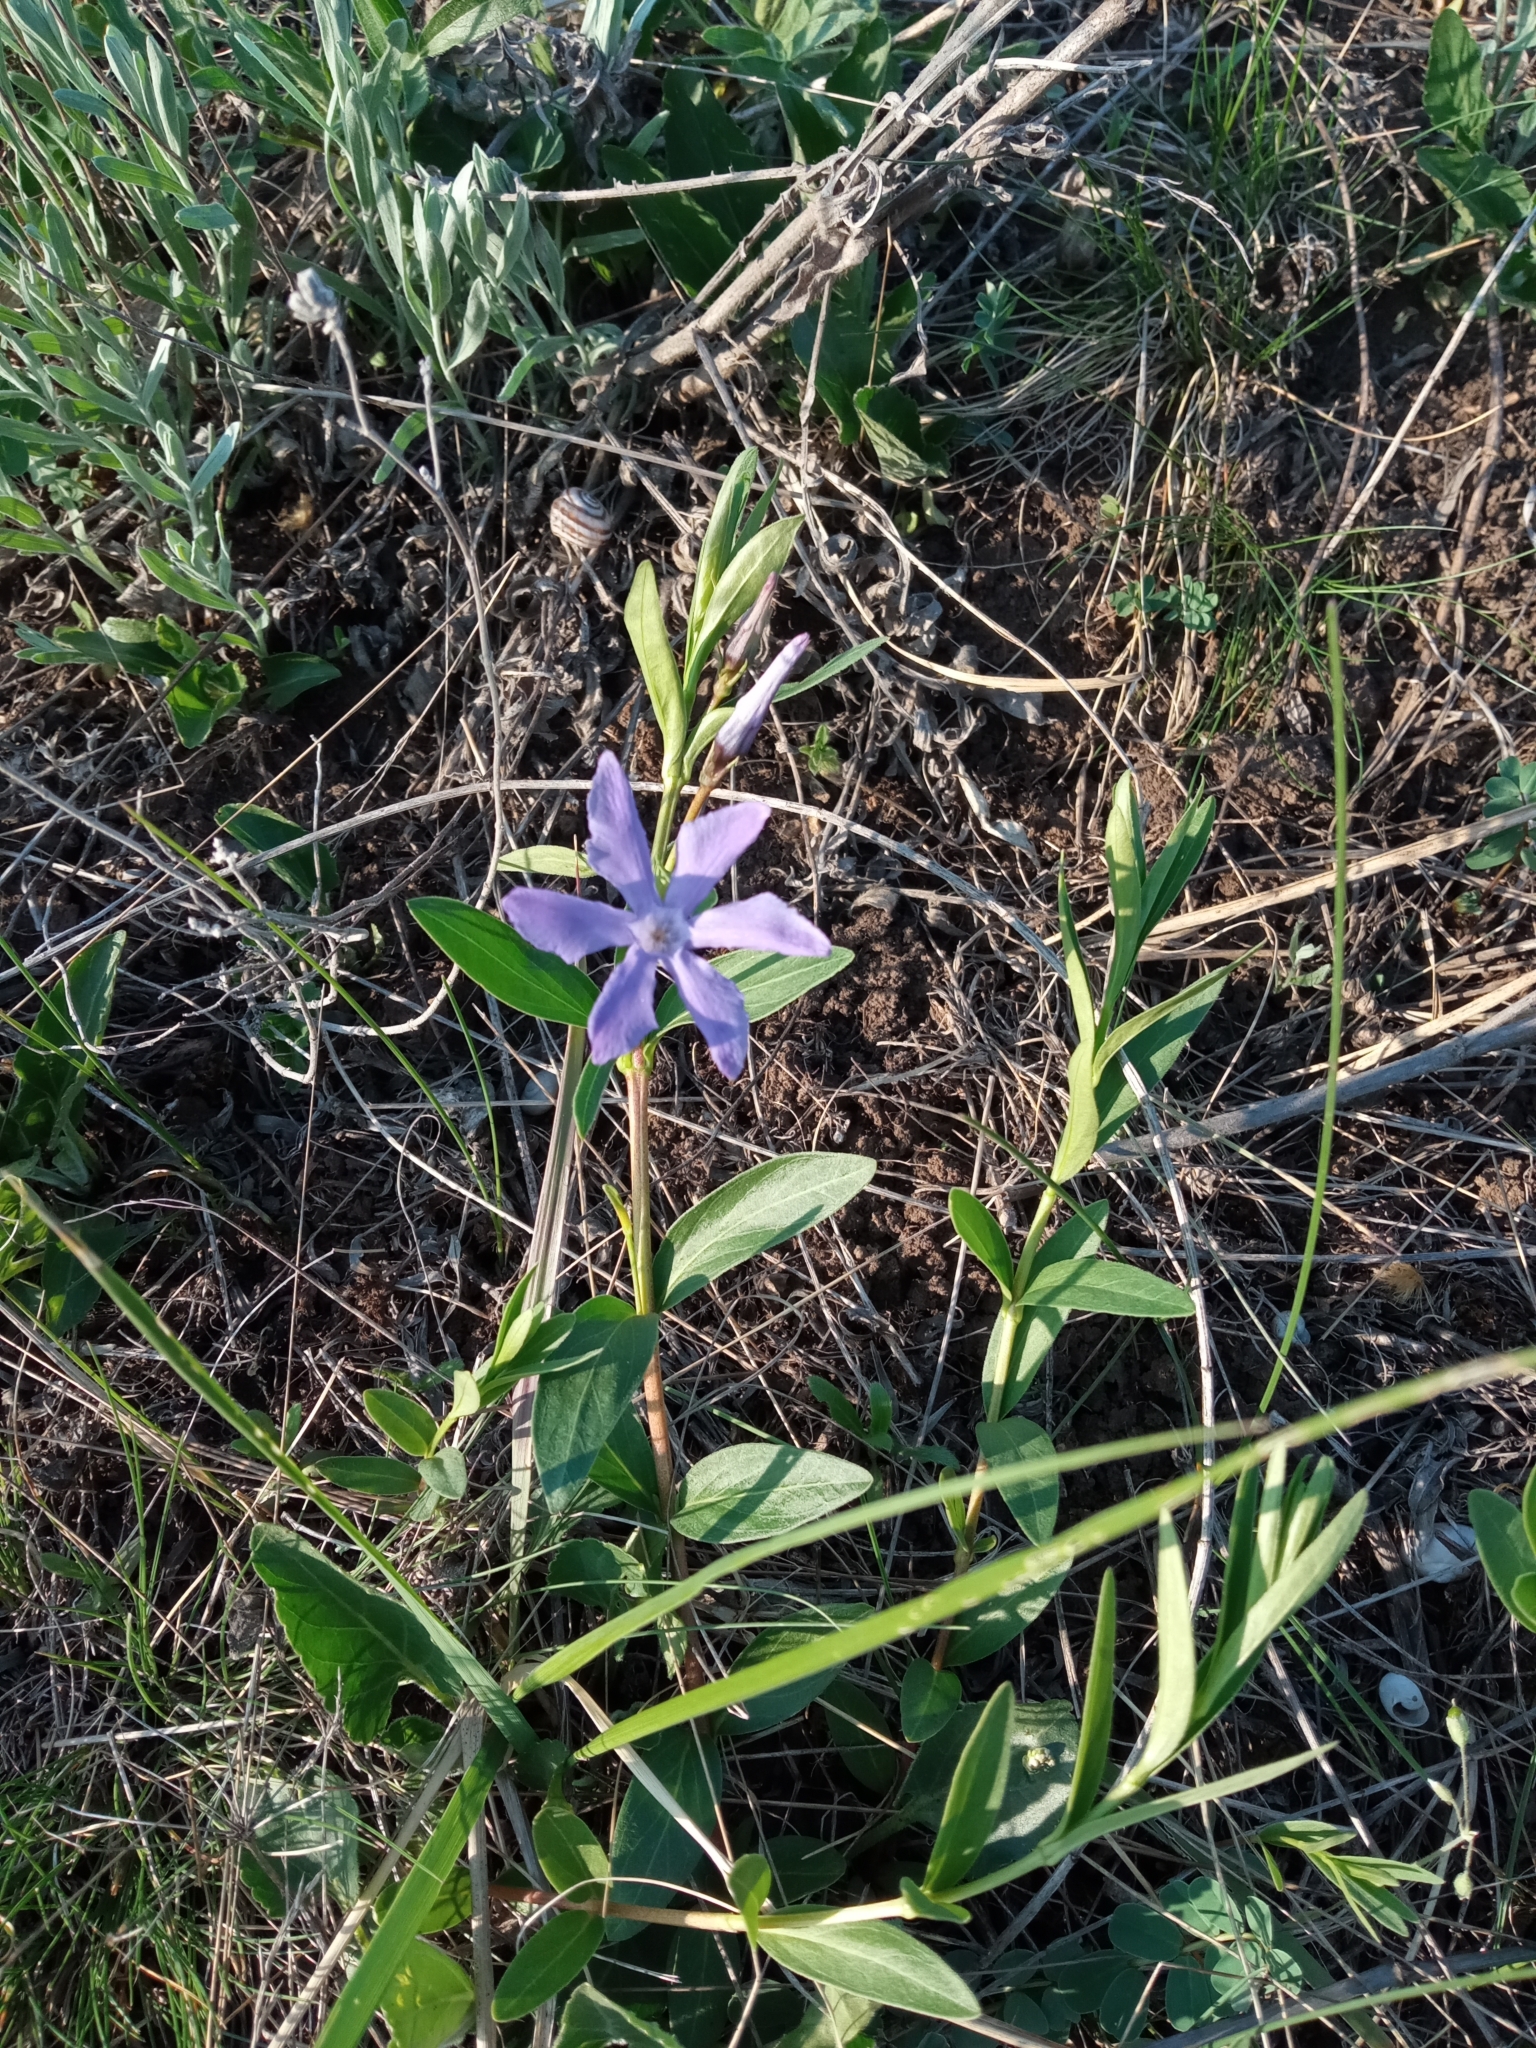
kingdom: Plantae
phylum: Tracheophyta
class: Magnoliopsida
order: Gentianales
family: Apocynaceae
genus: Vinca
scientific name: Vinca herbacea
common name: Herbaceous periwinkle
